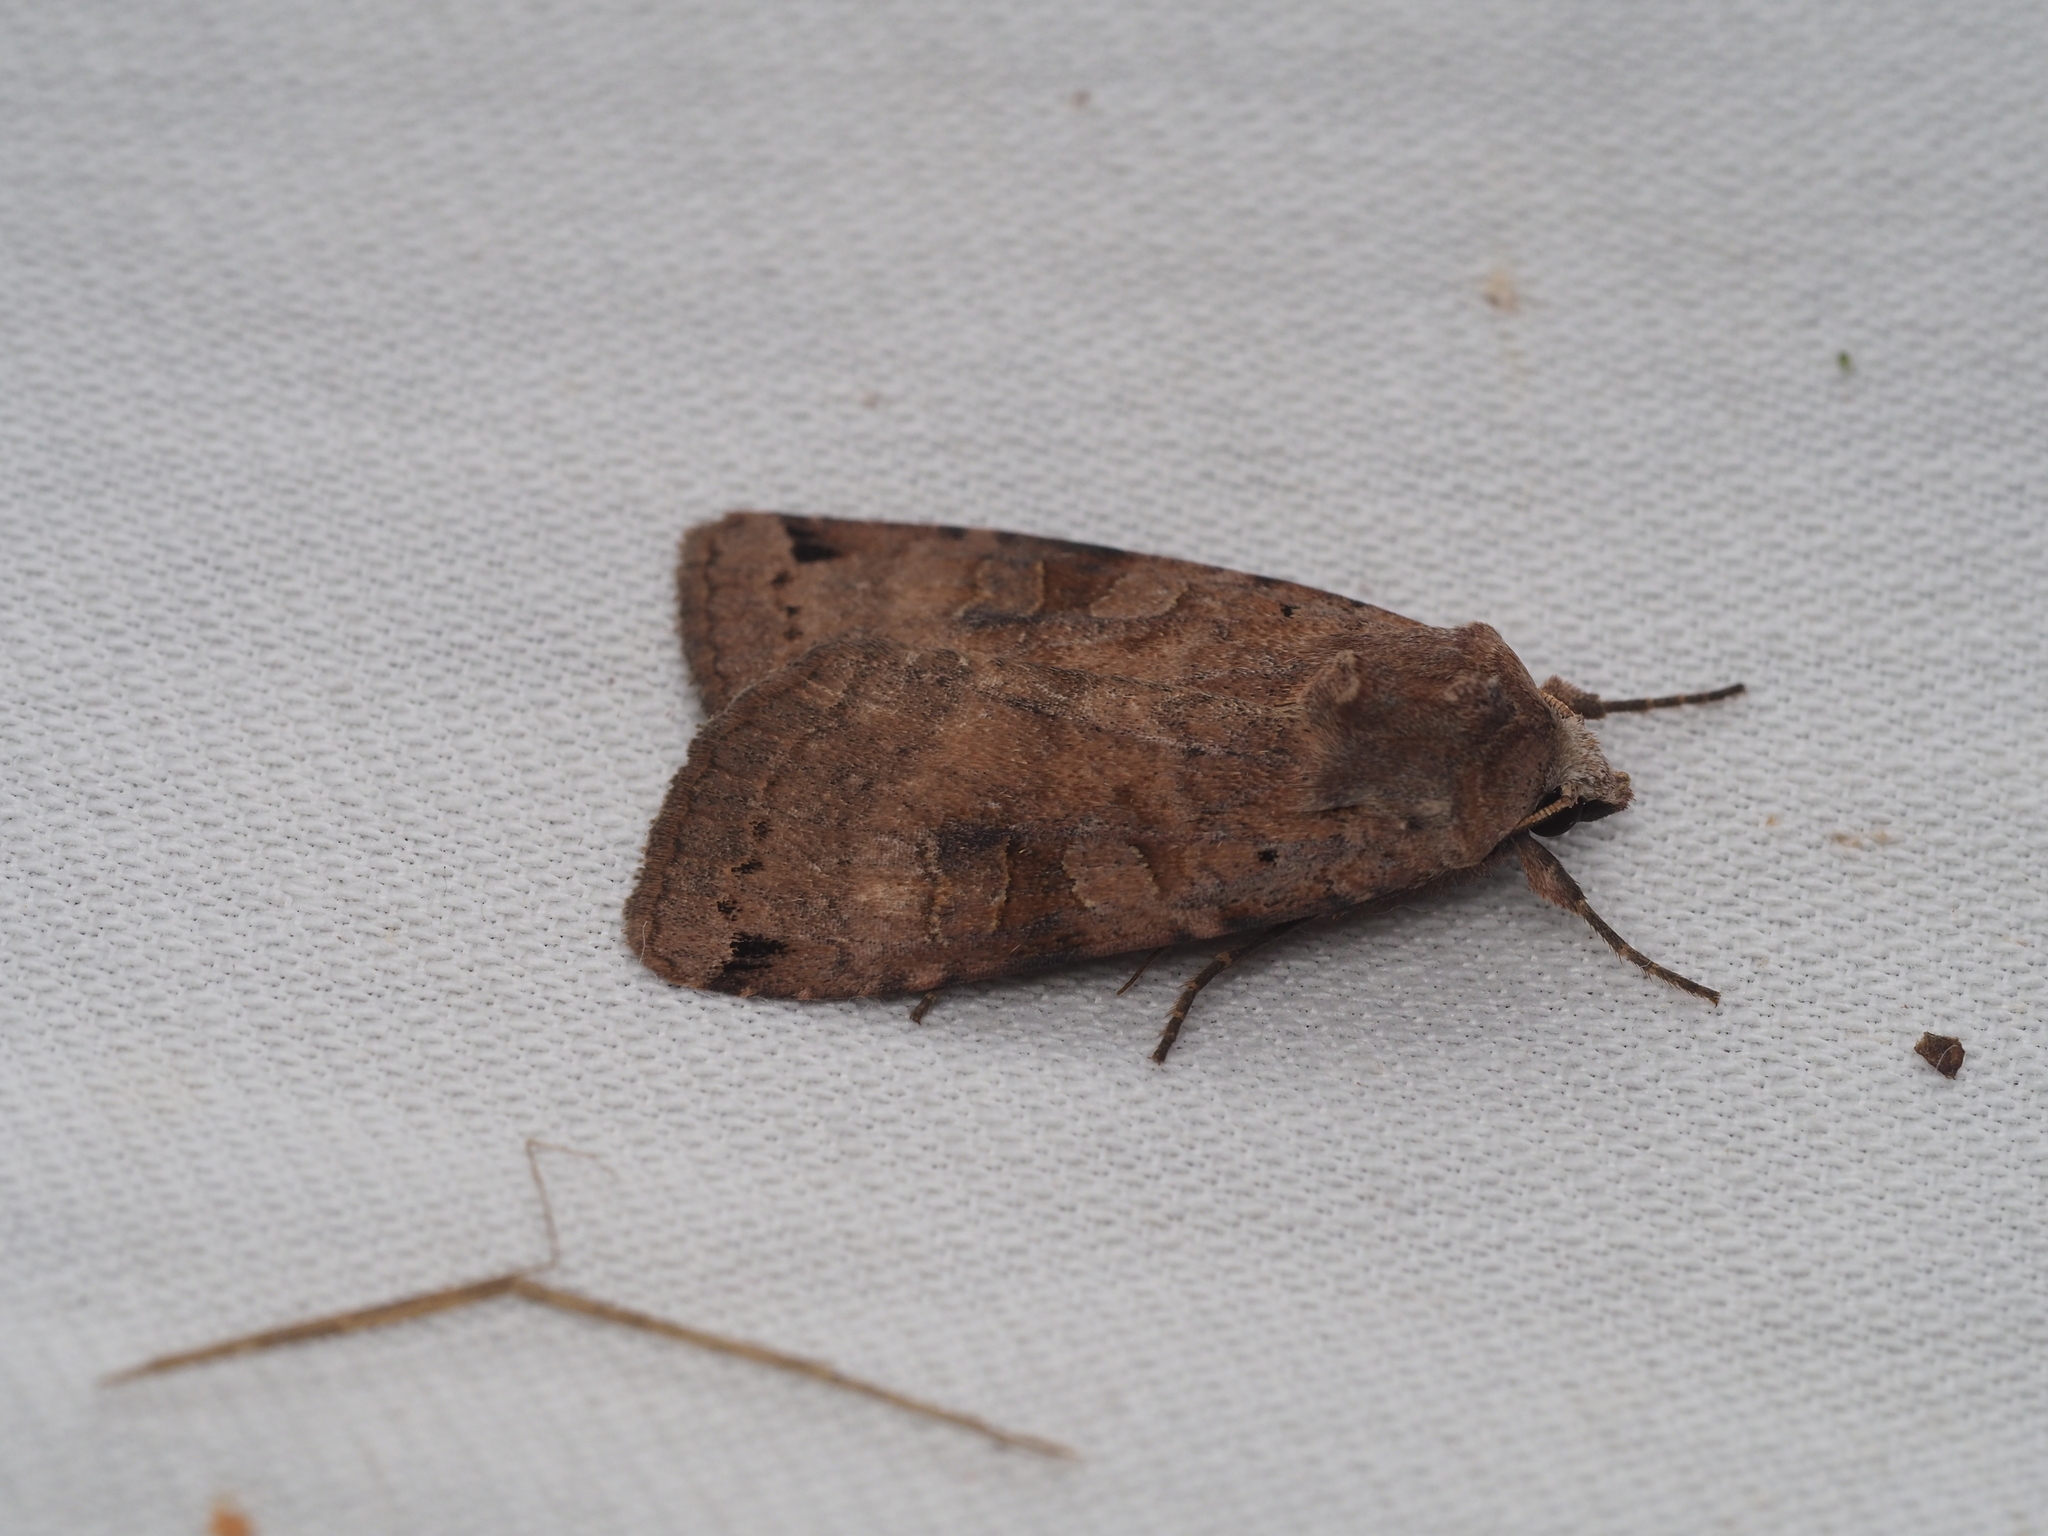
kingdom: Animalia
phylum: Arthropoda
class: Insecta
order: Lepidoptera
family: Noctuidae
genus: Xestia
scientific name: Xestia baja
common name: Dotted clay
